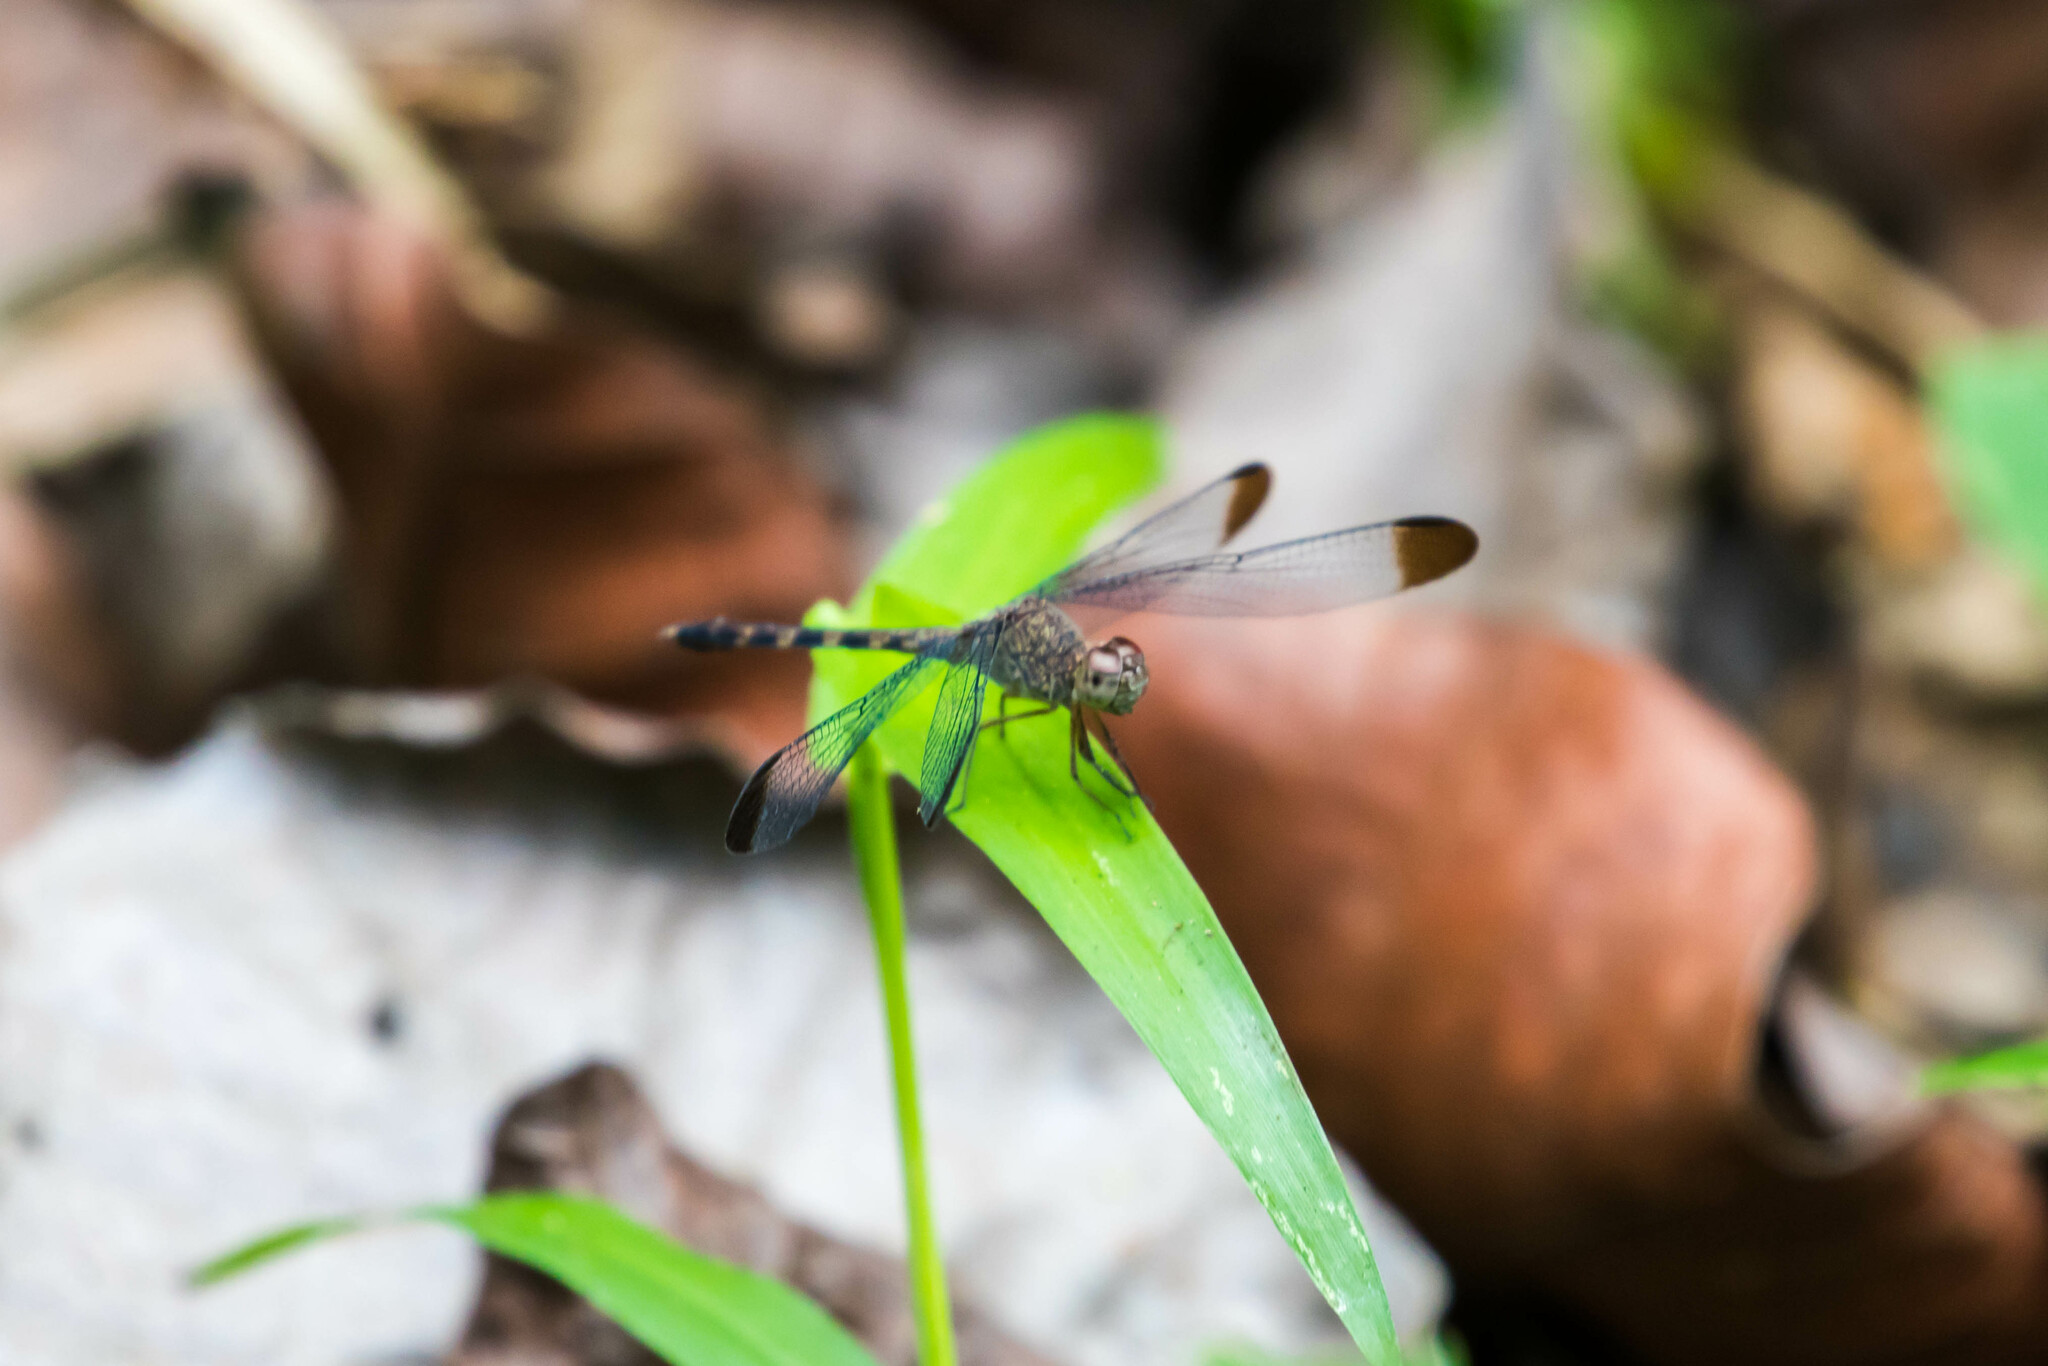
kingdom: Animalia
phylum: Arthropoda
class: Insecta
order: Odonata
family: Libellulidae
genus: Uracis
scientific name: Uracis imbuta
